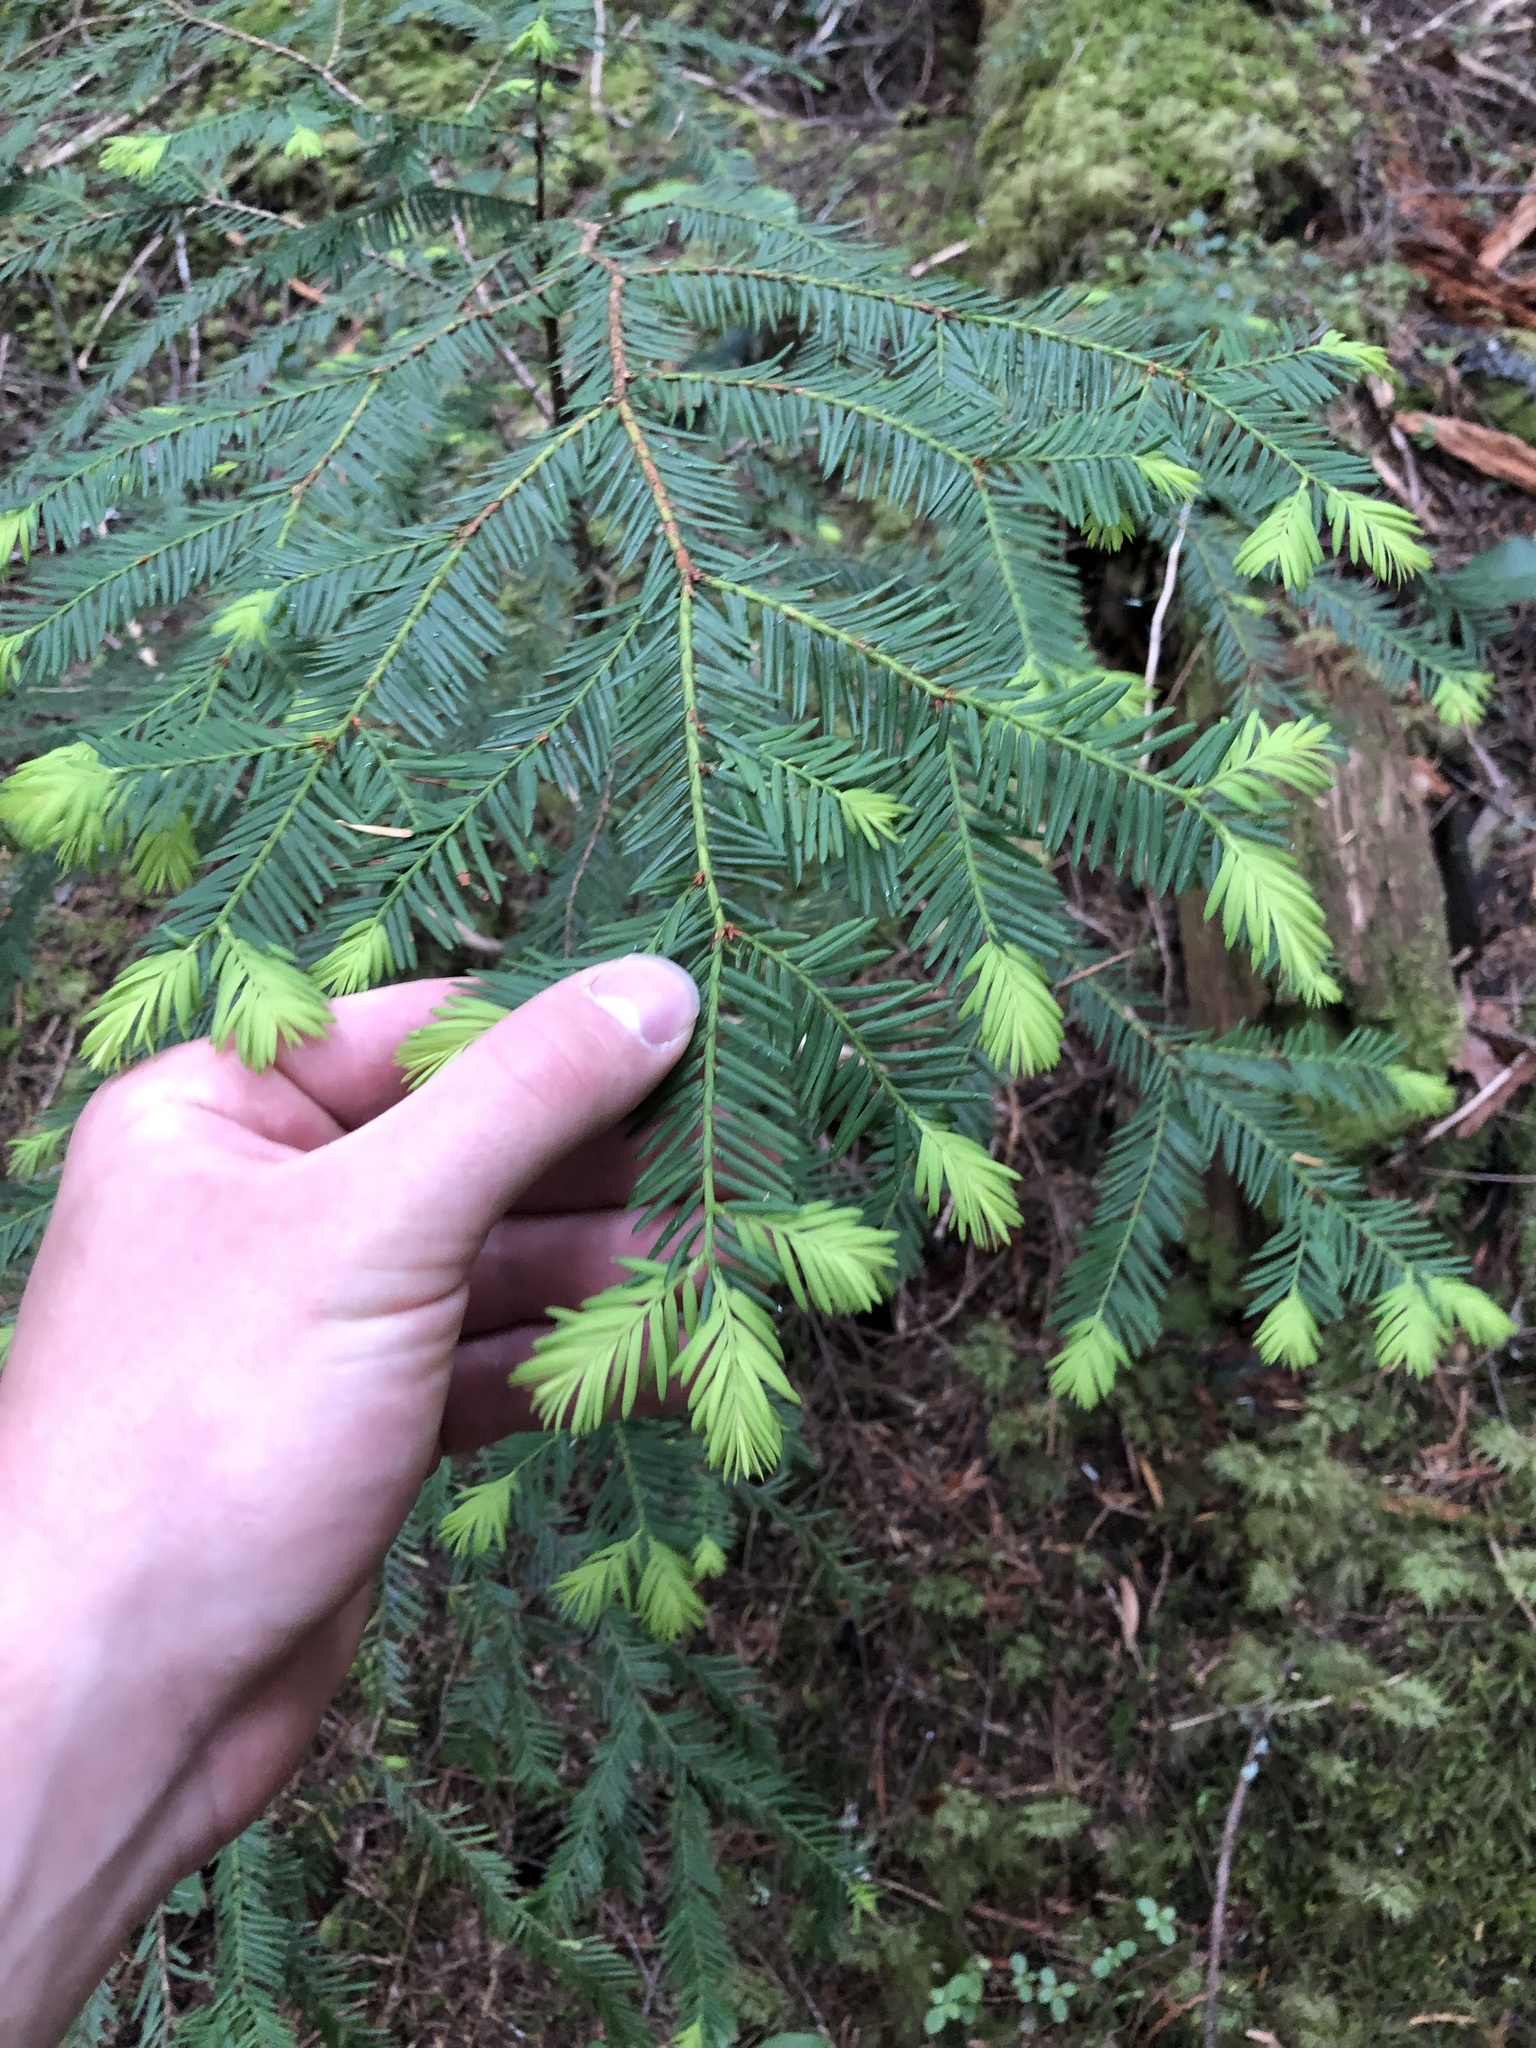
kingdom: Plantae
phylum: Tracheophyta
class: Pinopsida
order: Pinales
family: Taxaceae
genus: Taxus
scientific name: Taxus brevifolia
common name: Pacific yew
